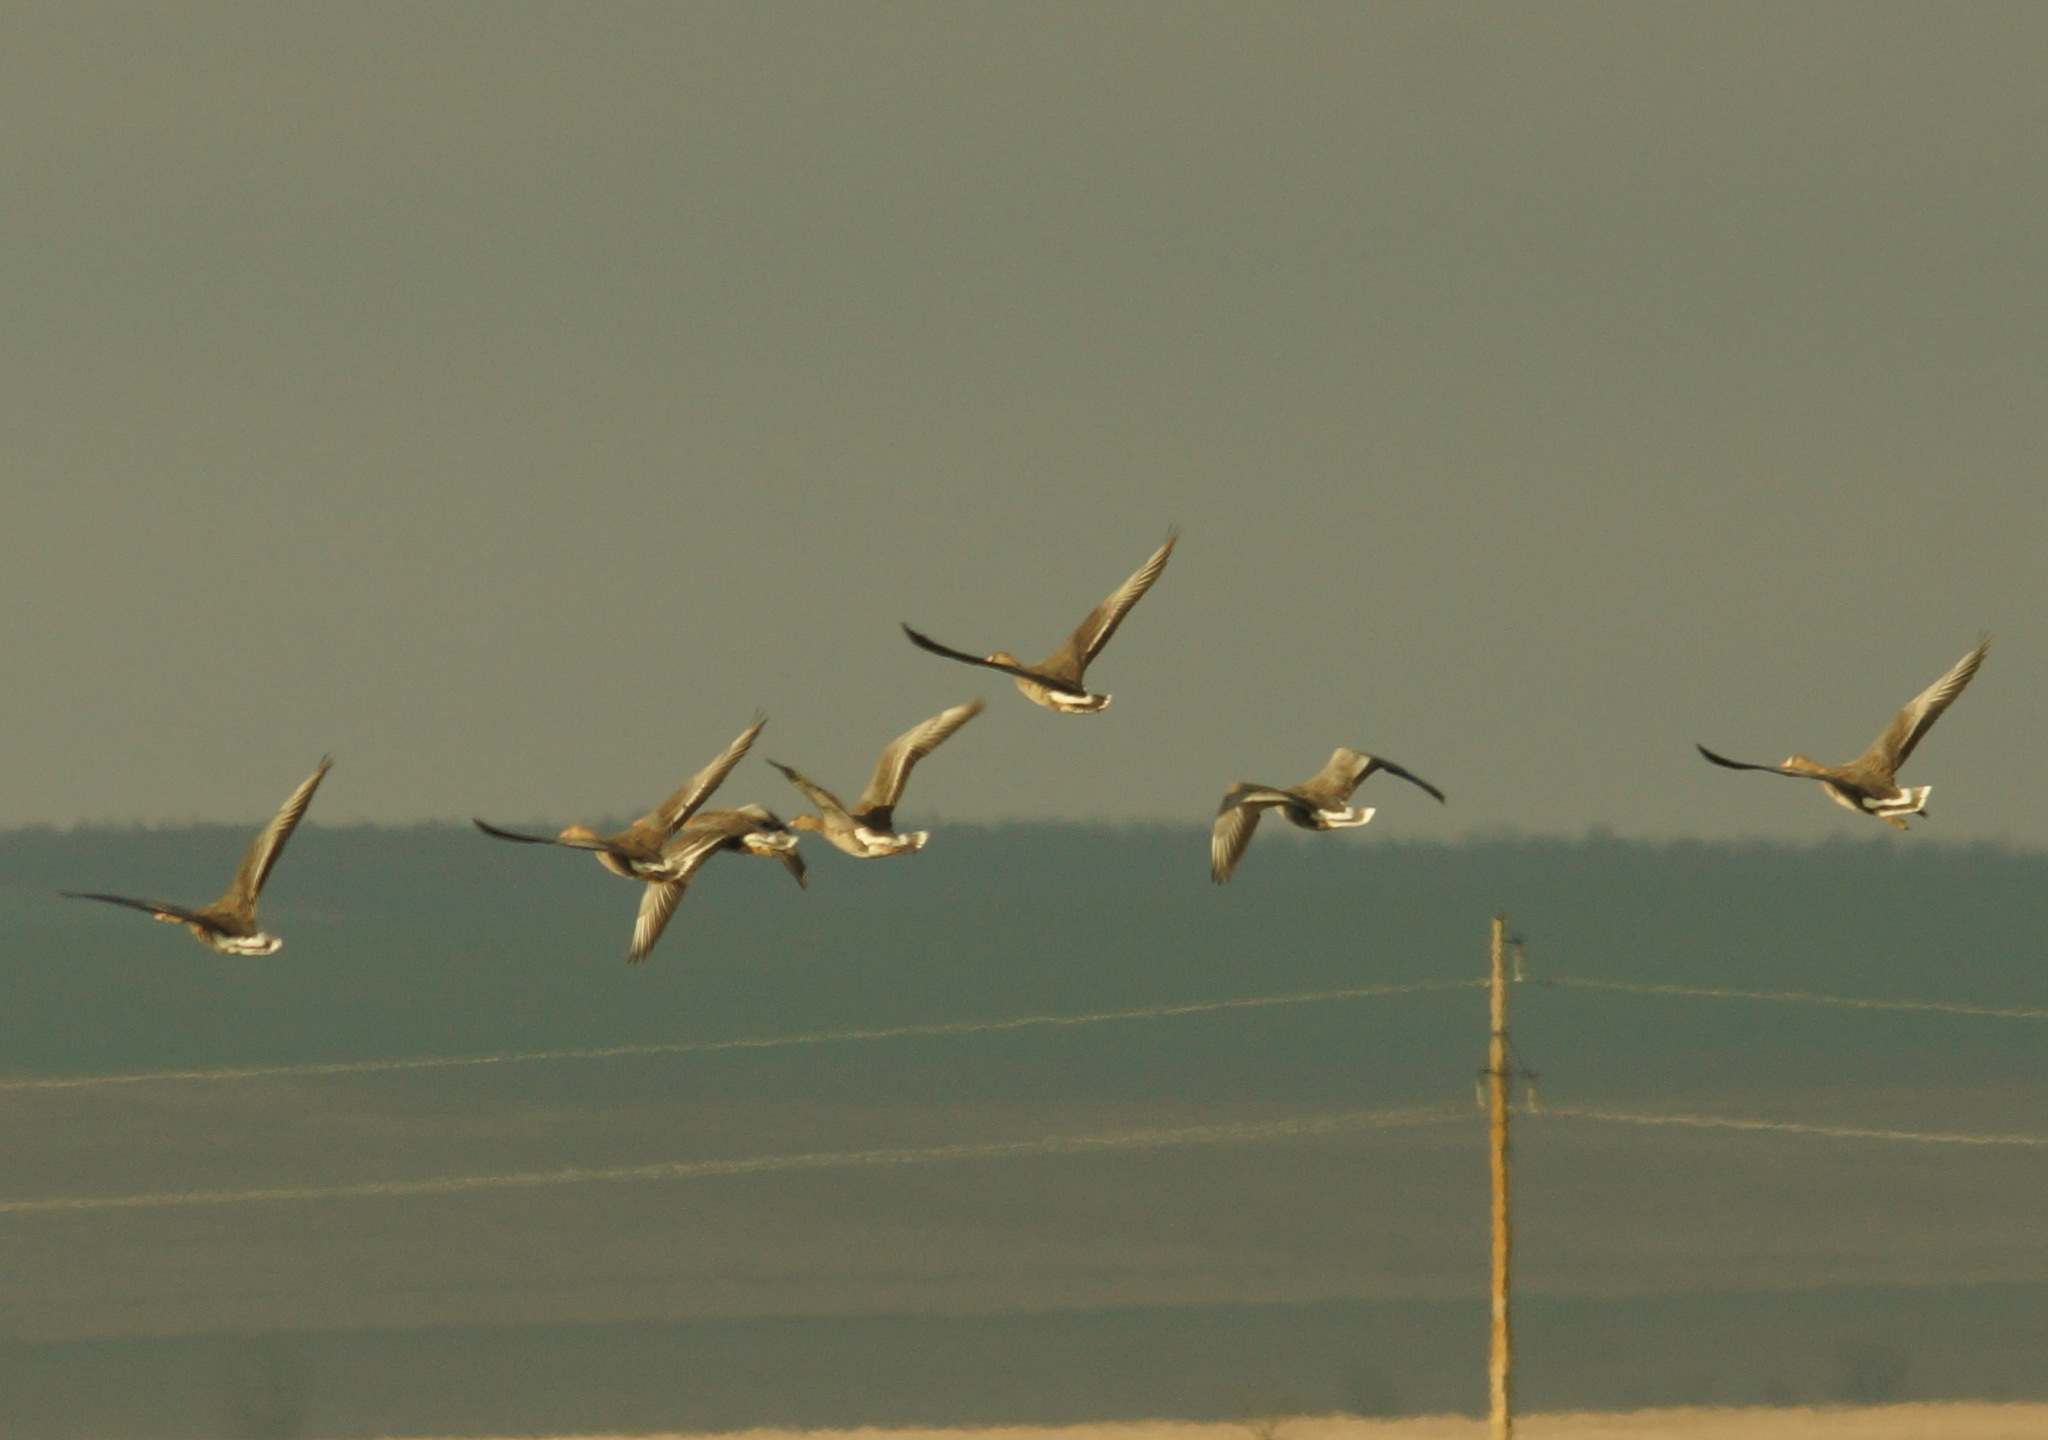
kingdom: Animalia
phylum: Chordata
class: Aves
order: Anseriformes
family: Anatidae
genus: Anser
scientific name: Anser albifrons
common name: Greater white-fronted goose
